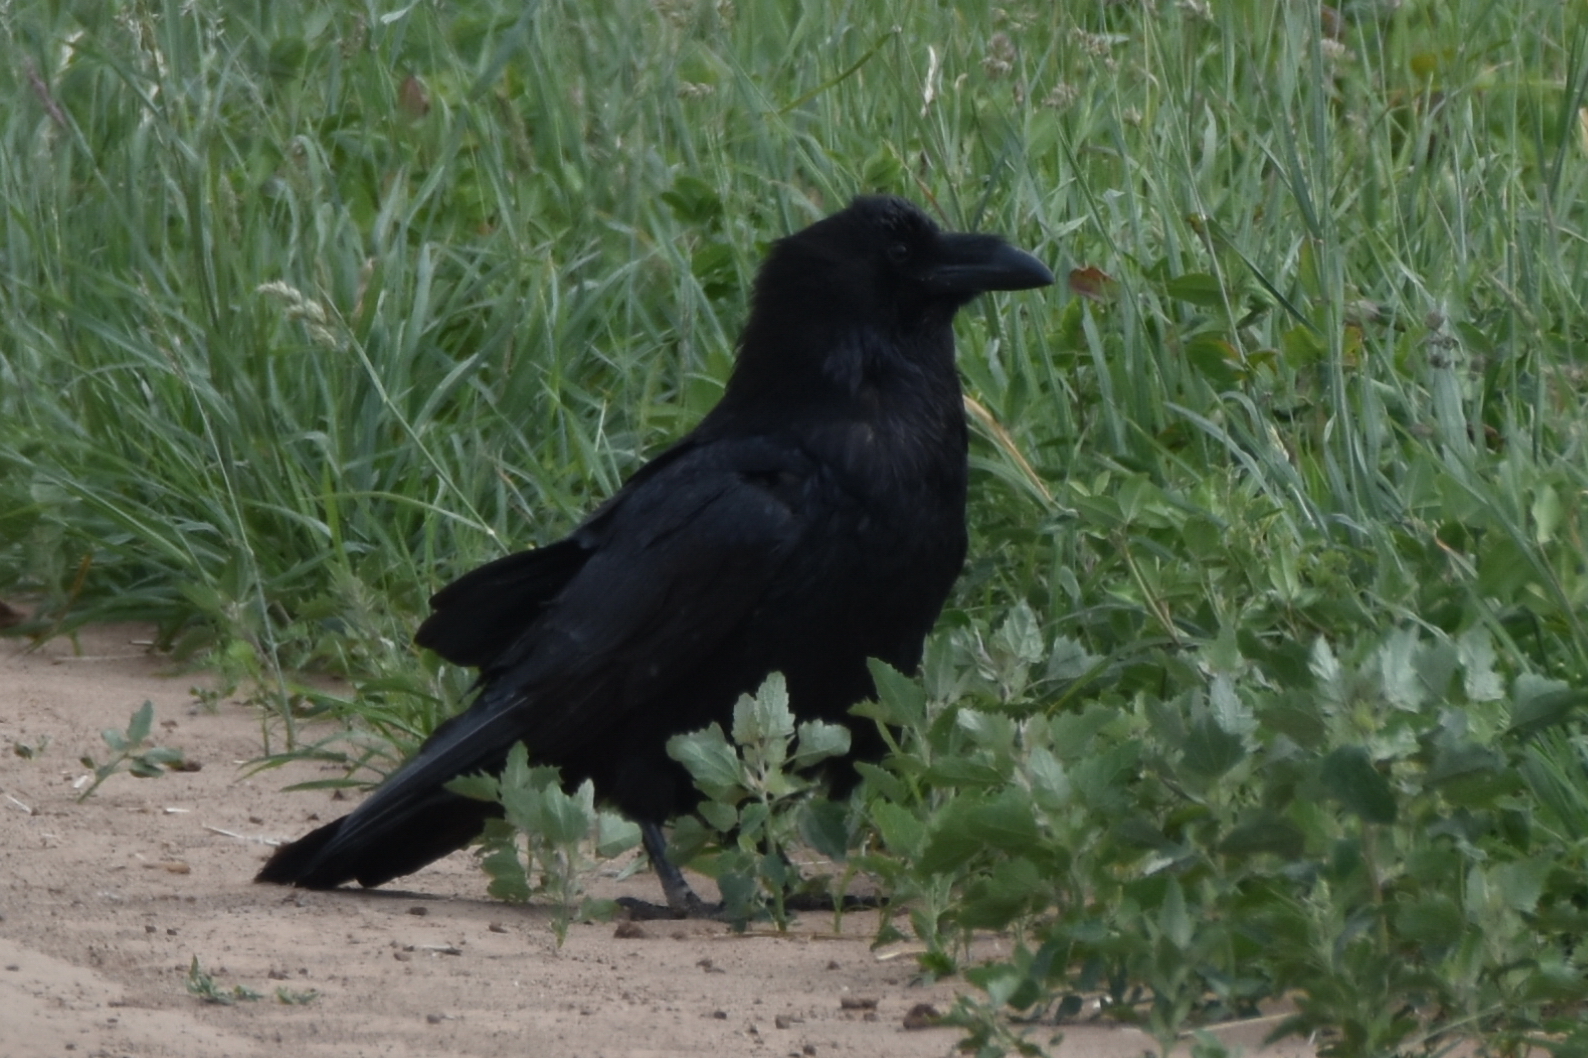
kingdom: Animalia
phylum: Chordata
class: Aves
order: Passeriformes
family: Corvidae
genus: Corvus
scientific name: Corvus corax
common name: Common raven
